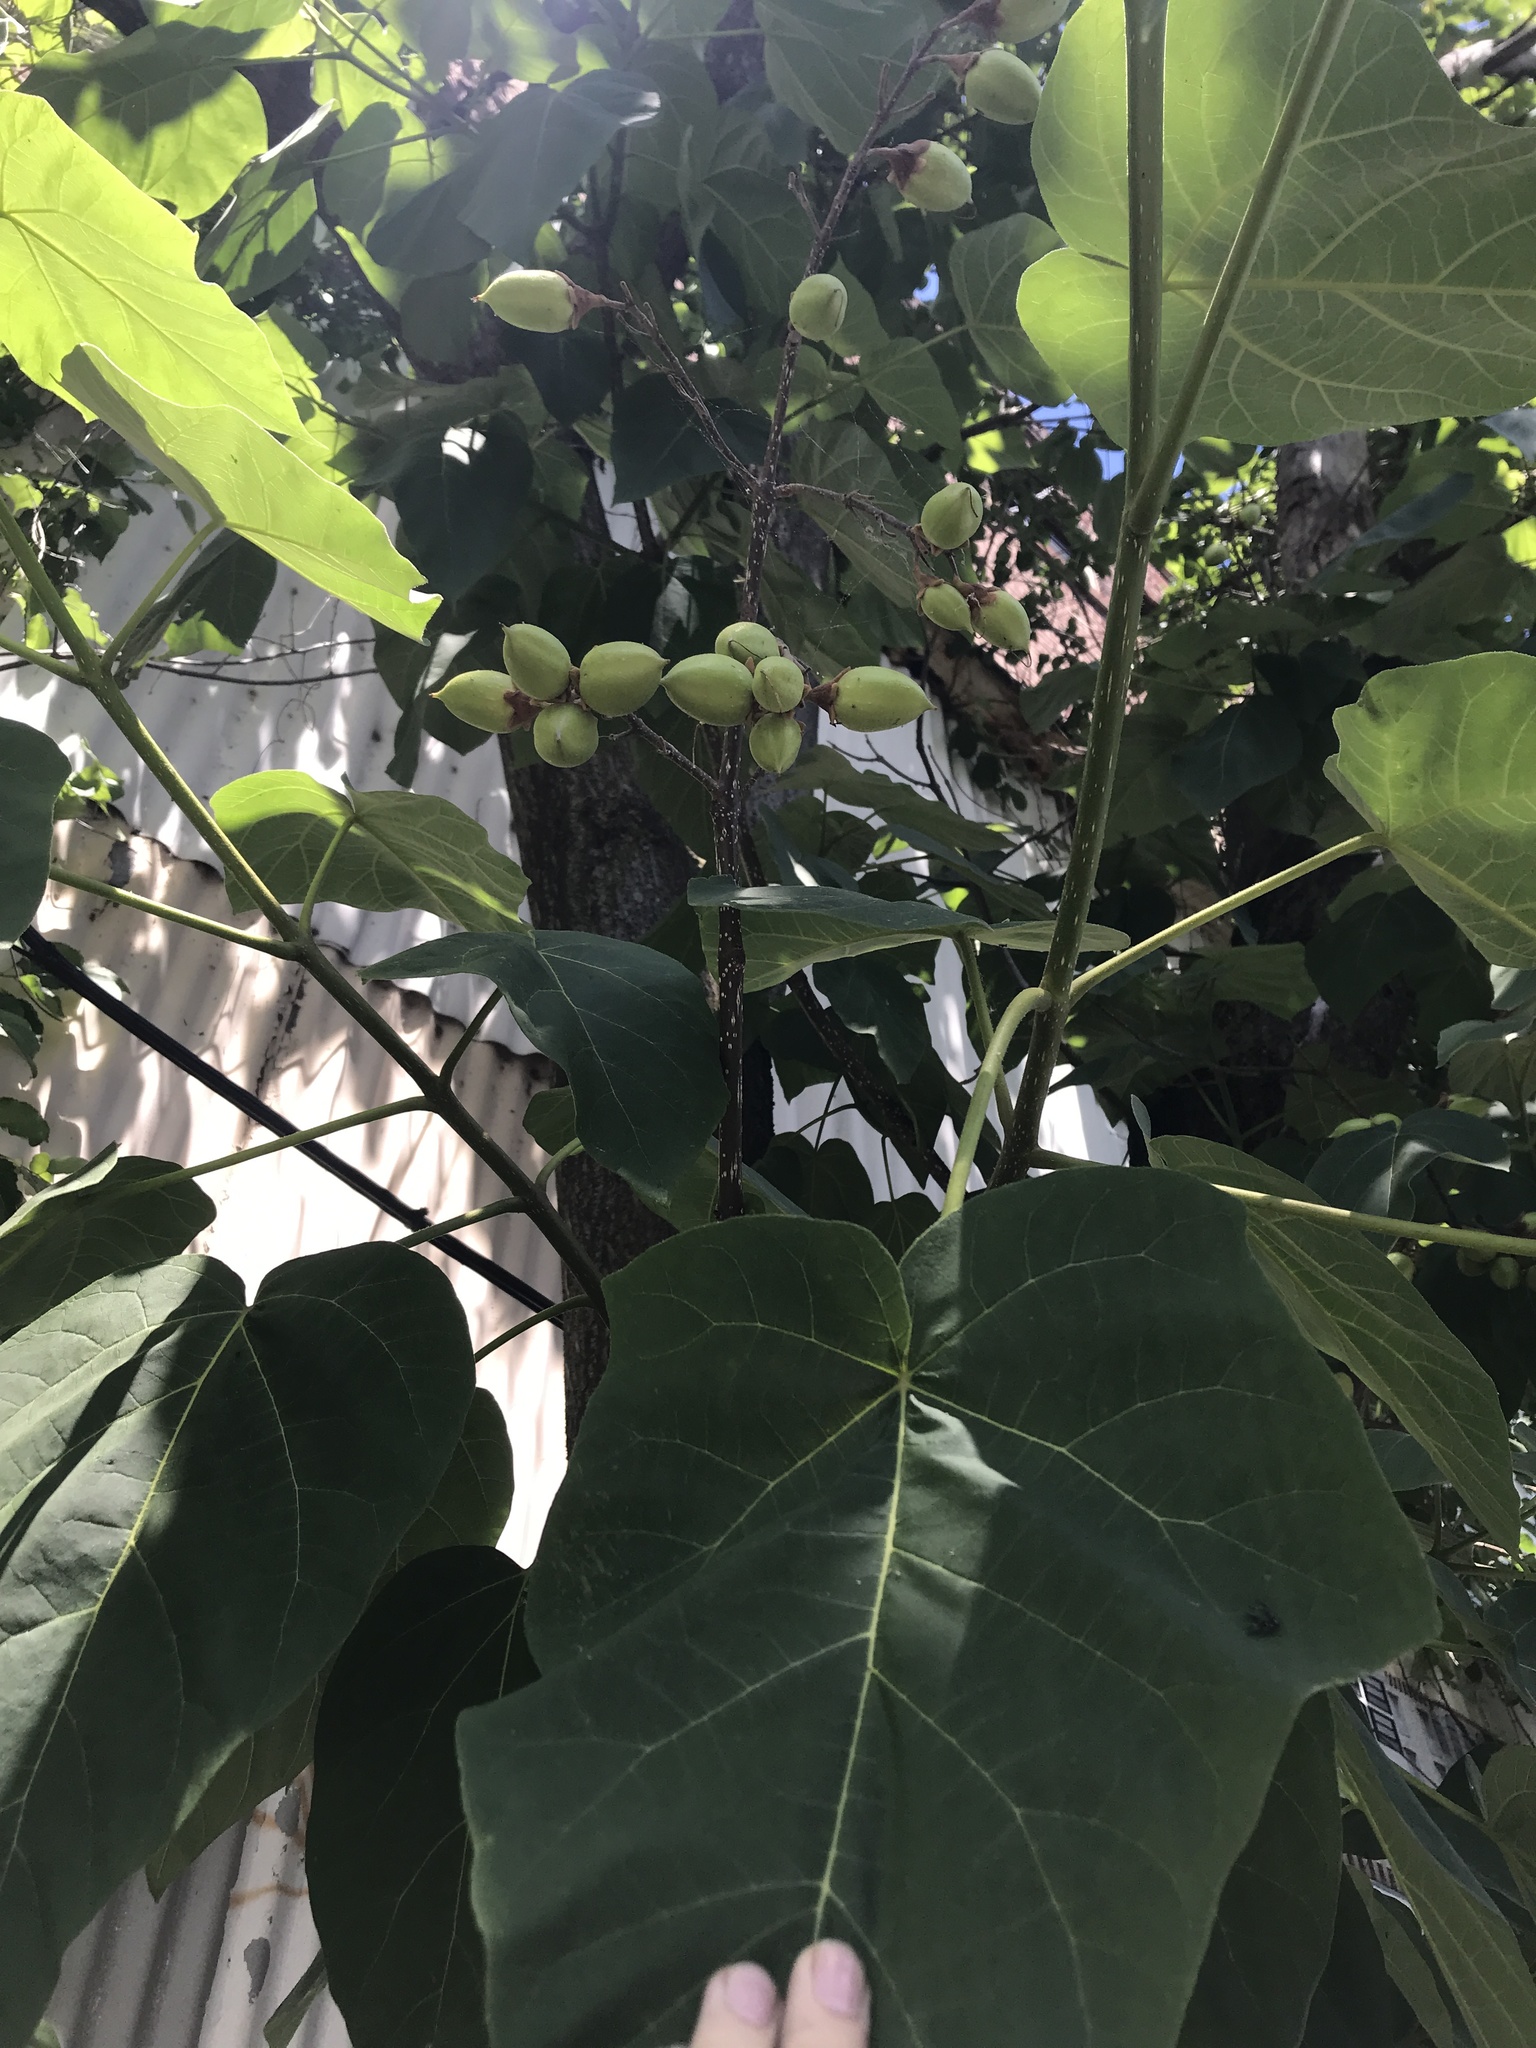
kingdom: Plantae
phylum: Tracheophyta
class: Magnoliopsida
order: Lamiales
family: Paulowniaceae
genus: Paulownia
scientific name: Paulownia tomentosa
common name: Foxglove-tree
